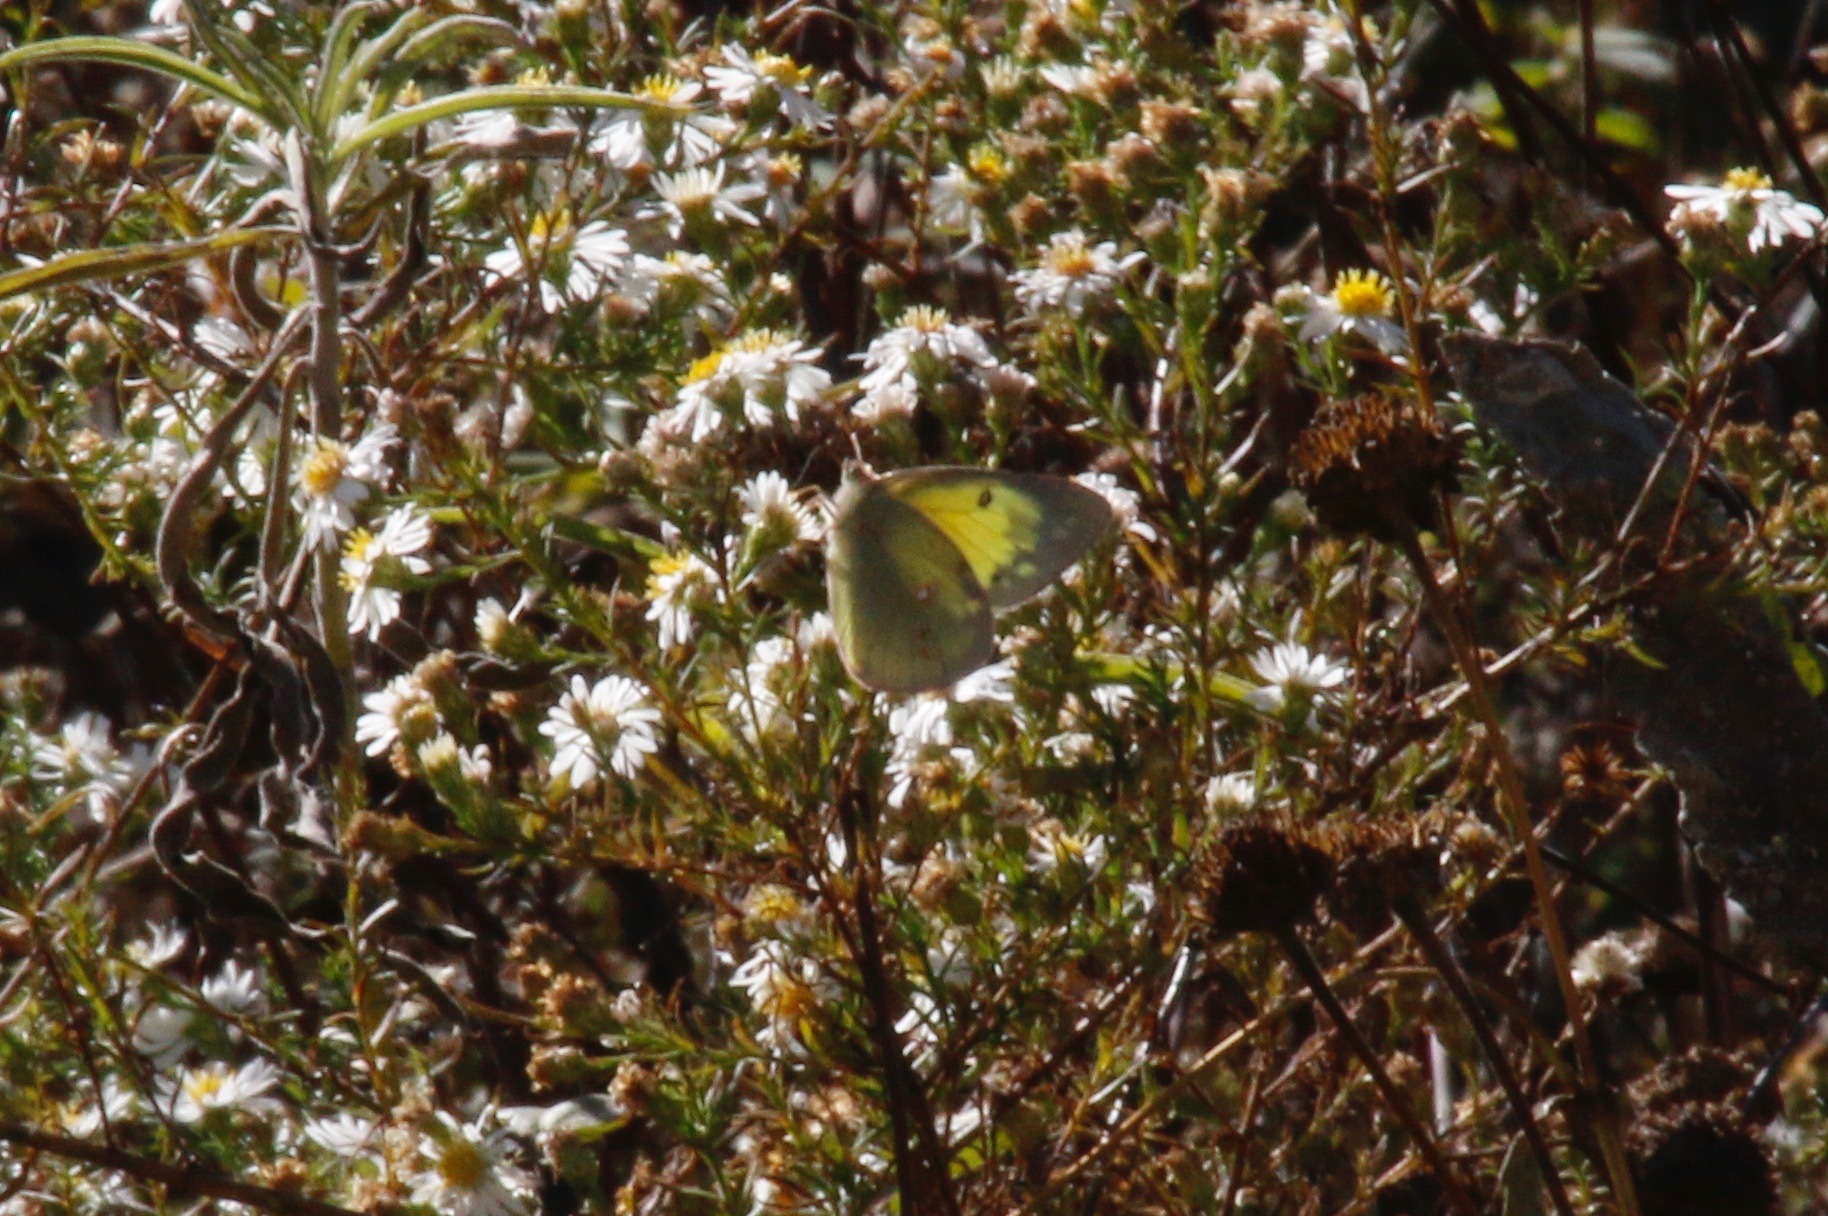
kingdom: Animalia
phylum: Arthropoda
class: Insecta
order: Lepidoptera
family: Pieridae
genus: Colias
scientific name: Colias eurytheme
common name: Alfalfa butterfly
